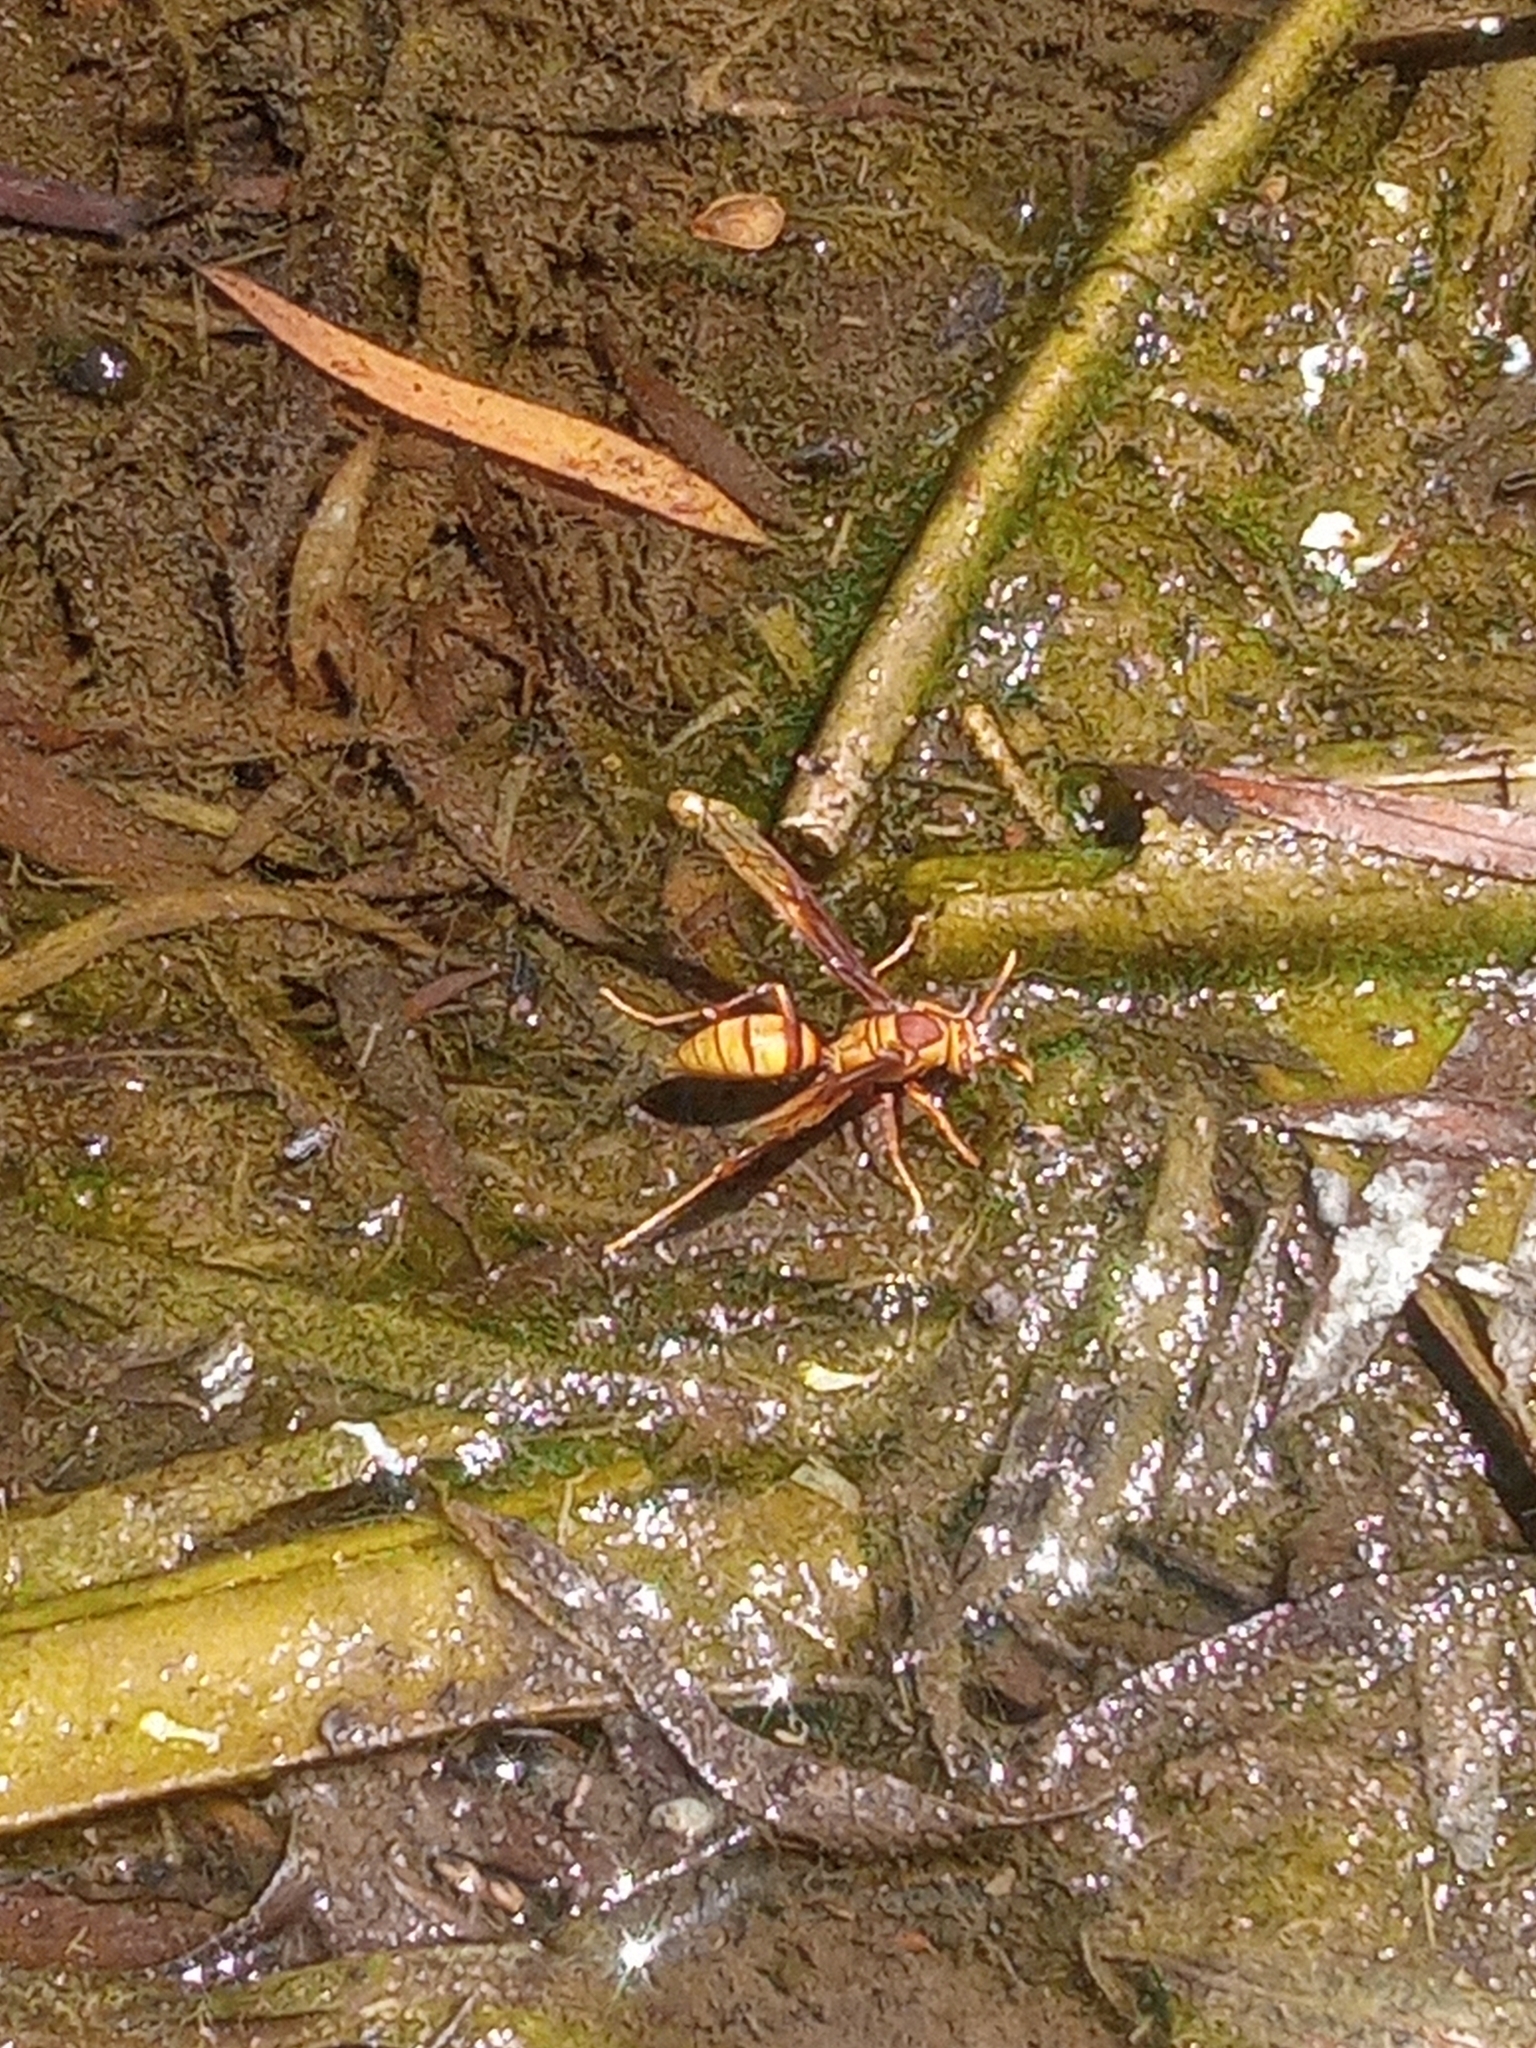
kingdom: Animalia
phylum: Arthropoda
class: Insecta
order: Hymenoptera
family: Eumenidae
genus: Polistes
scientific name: Polistes major
